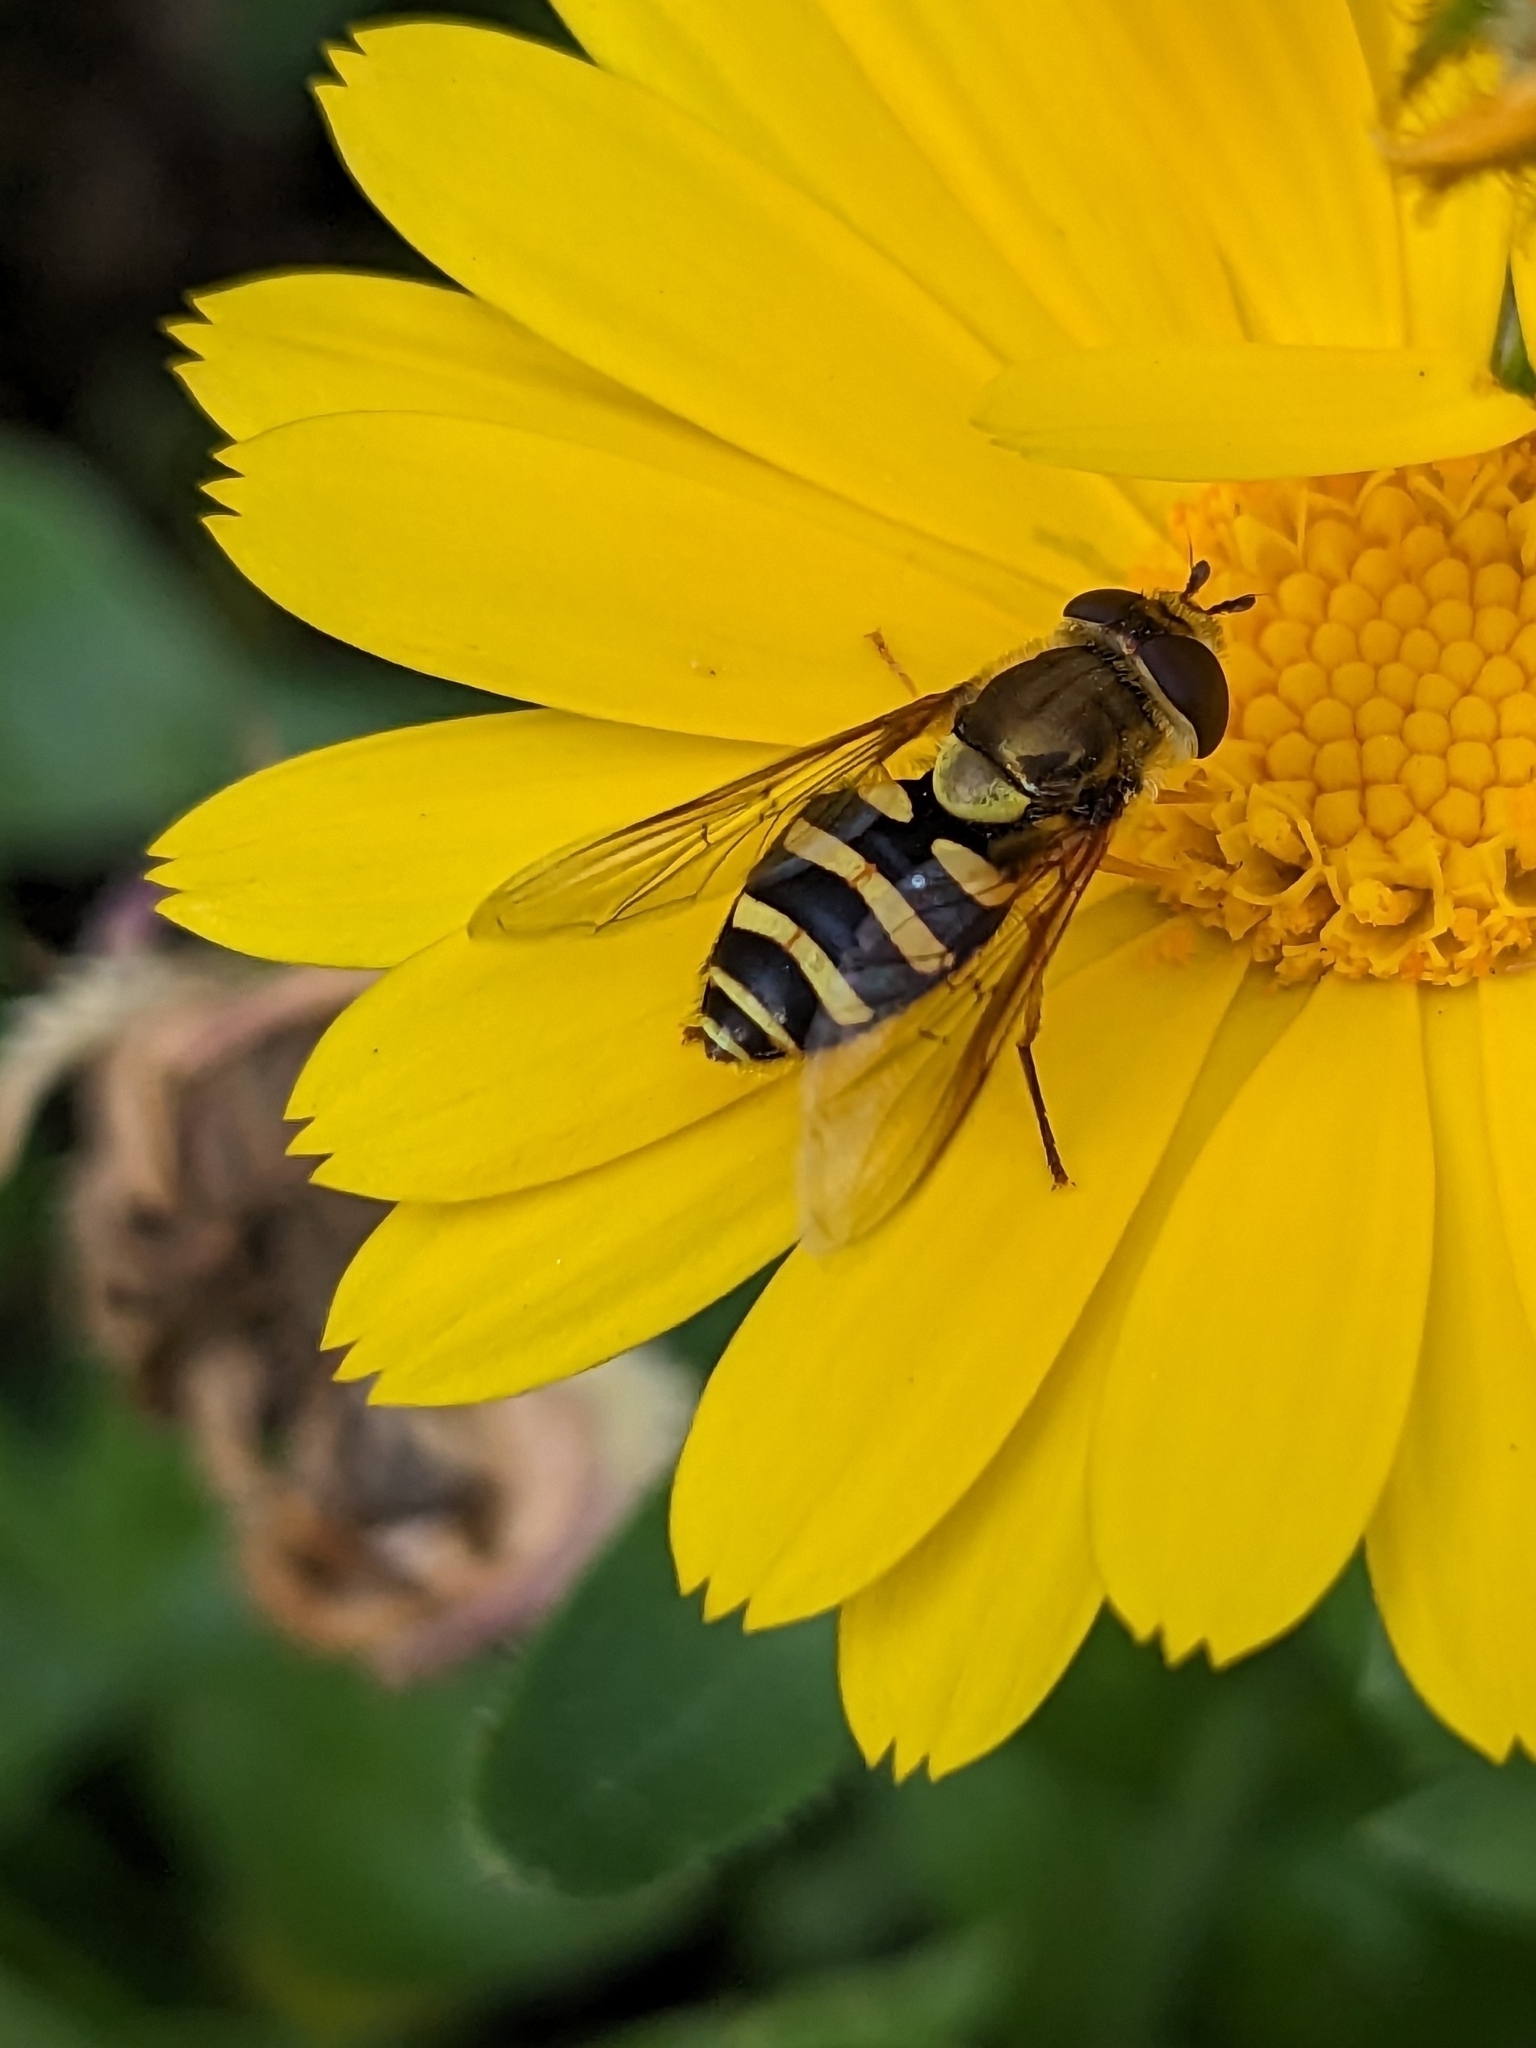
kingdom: Animalia
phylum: Arthropoda
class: Insecta
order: Diptera
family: Syrphidae
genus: Syrphus
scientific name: Syrphus opinator
